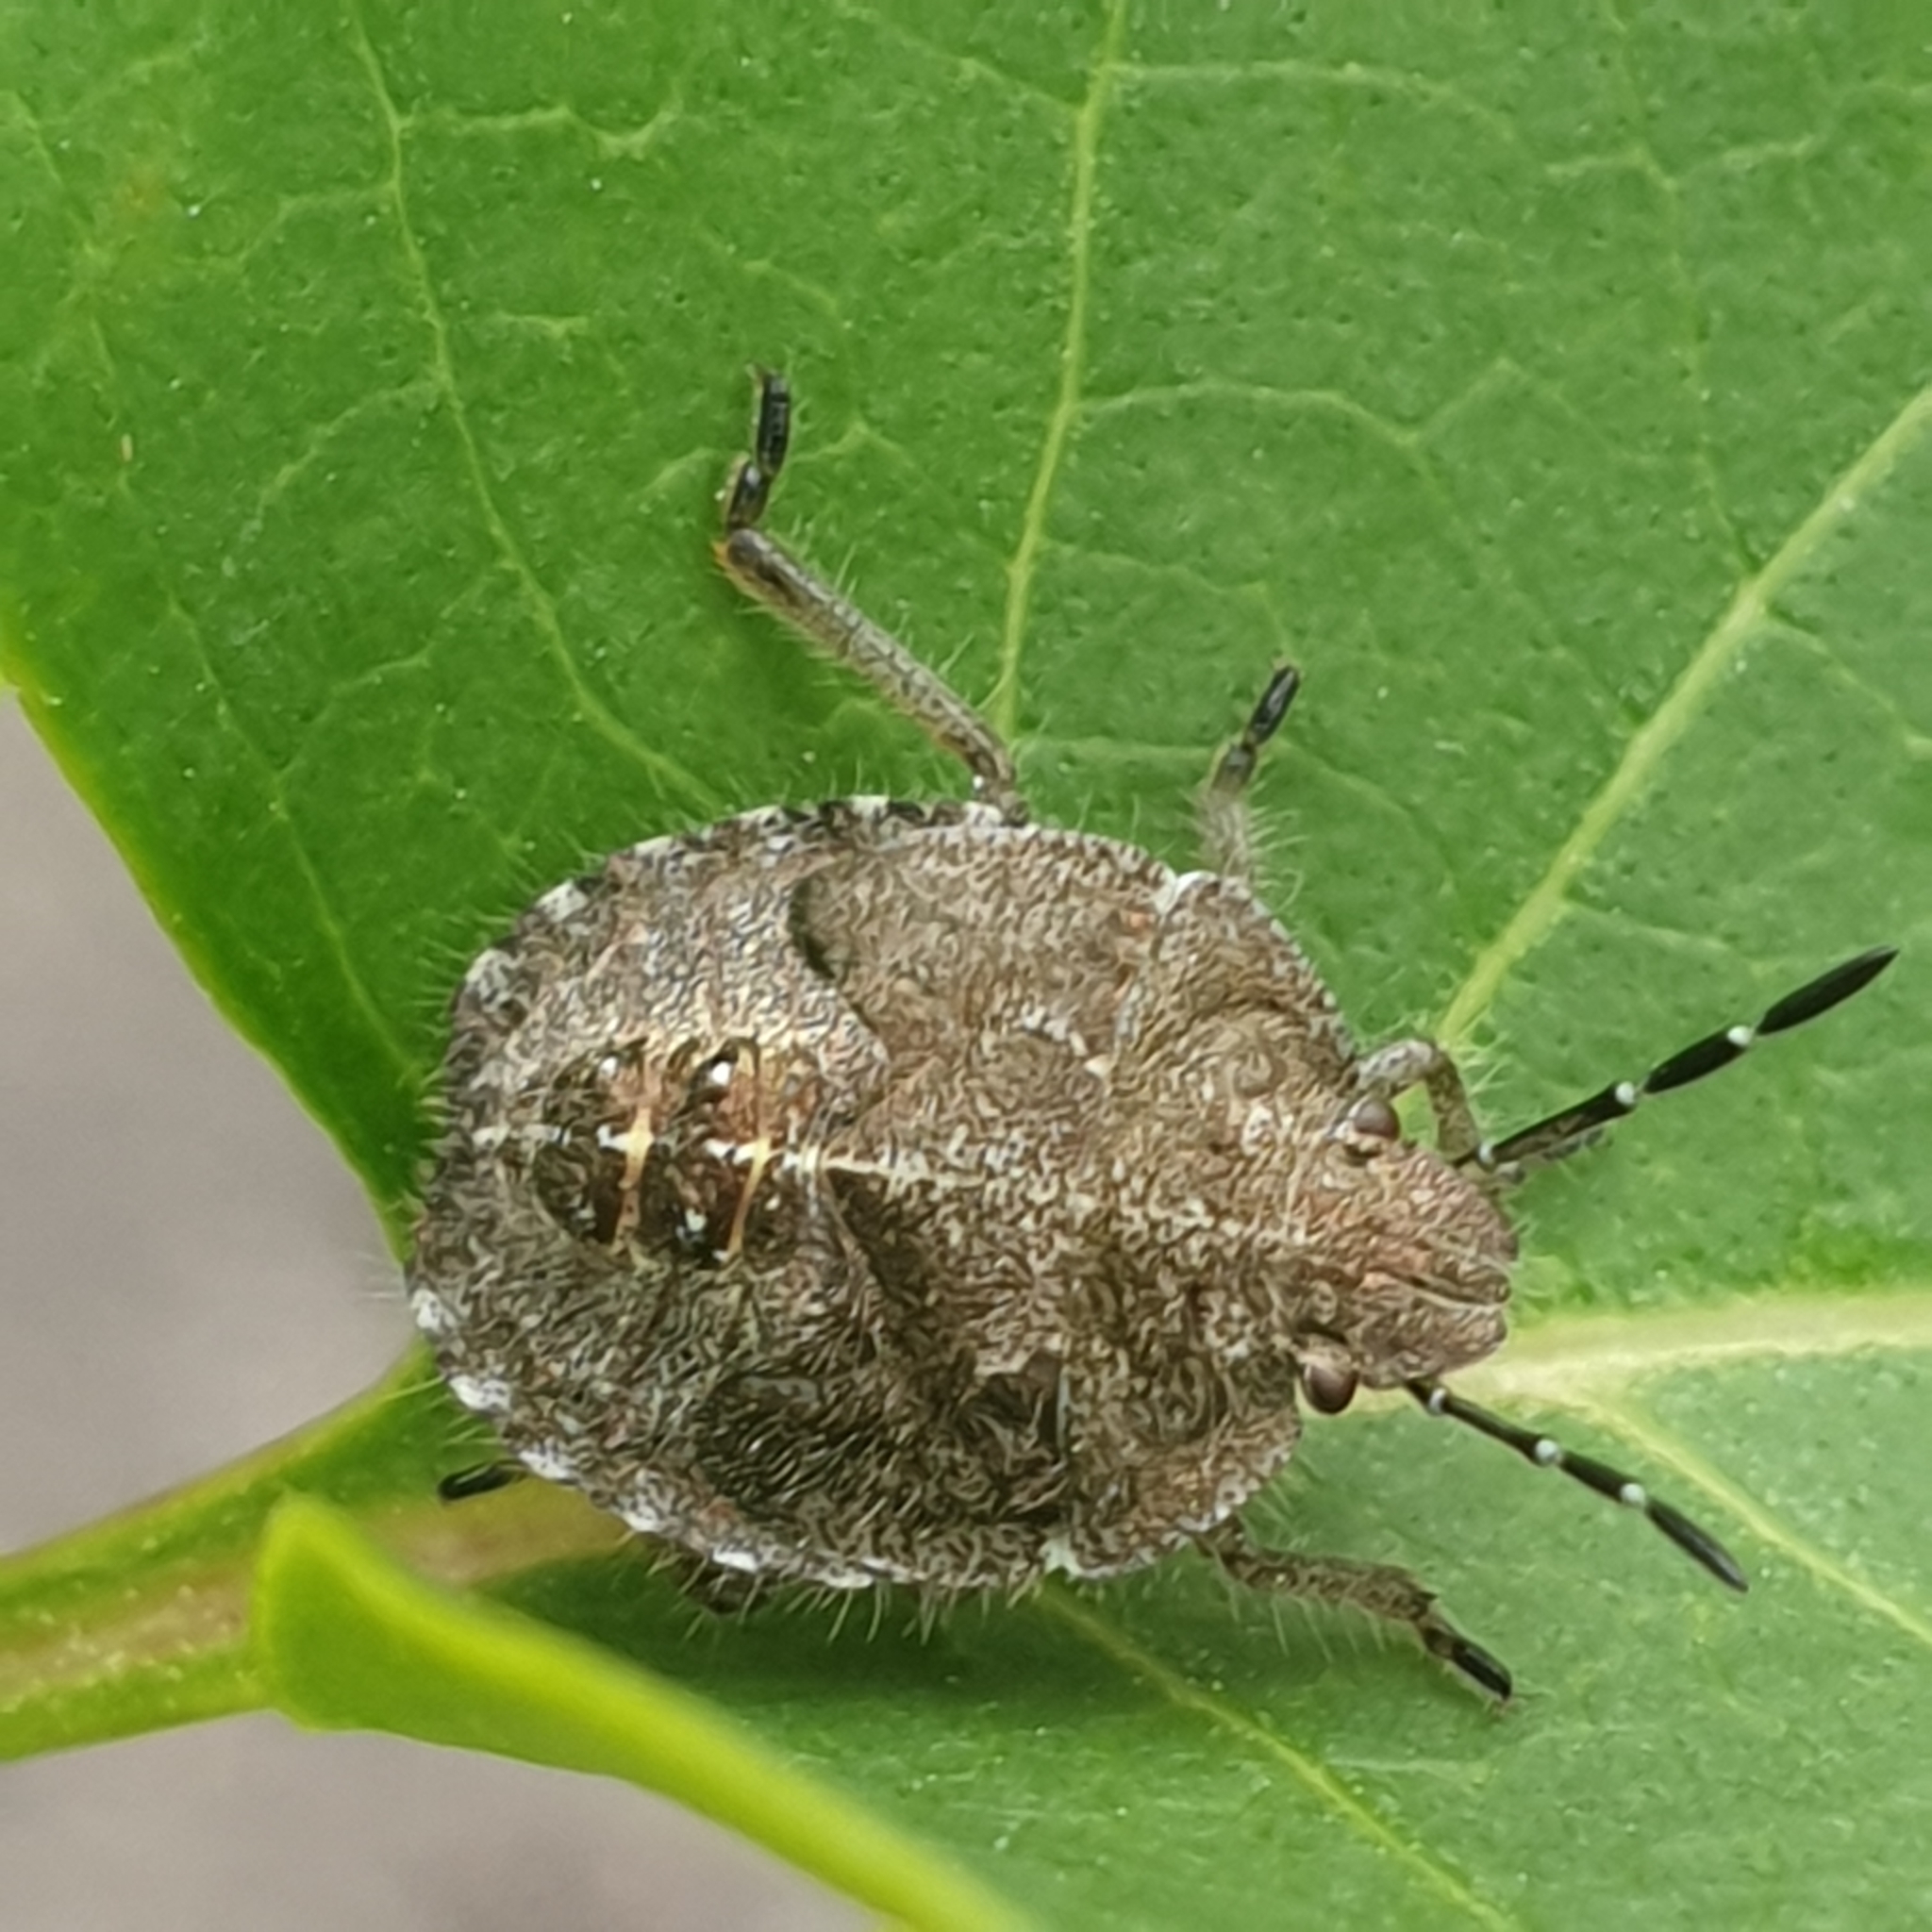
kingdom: Animalia
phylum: Arthropoda
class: Insecta
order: Hemiptera
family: Pentatomidae
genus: Dolycoris
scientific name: Dolycoris baccarum
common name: Sloe bug
